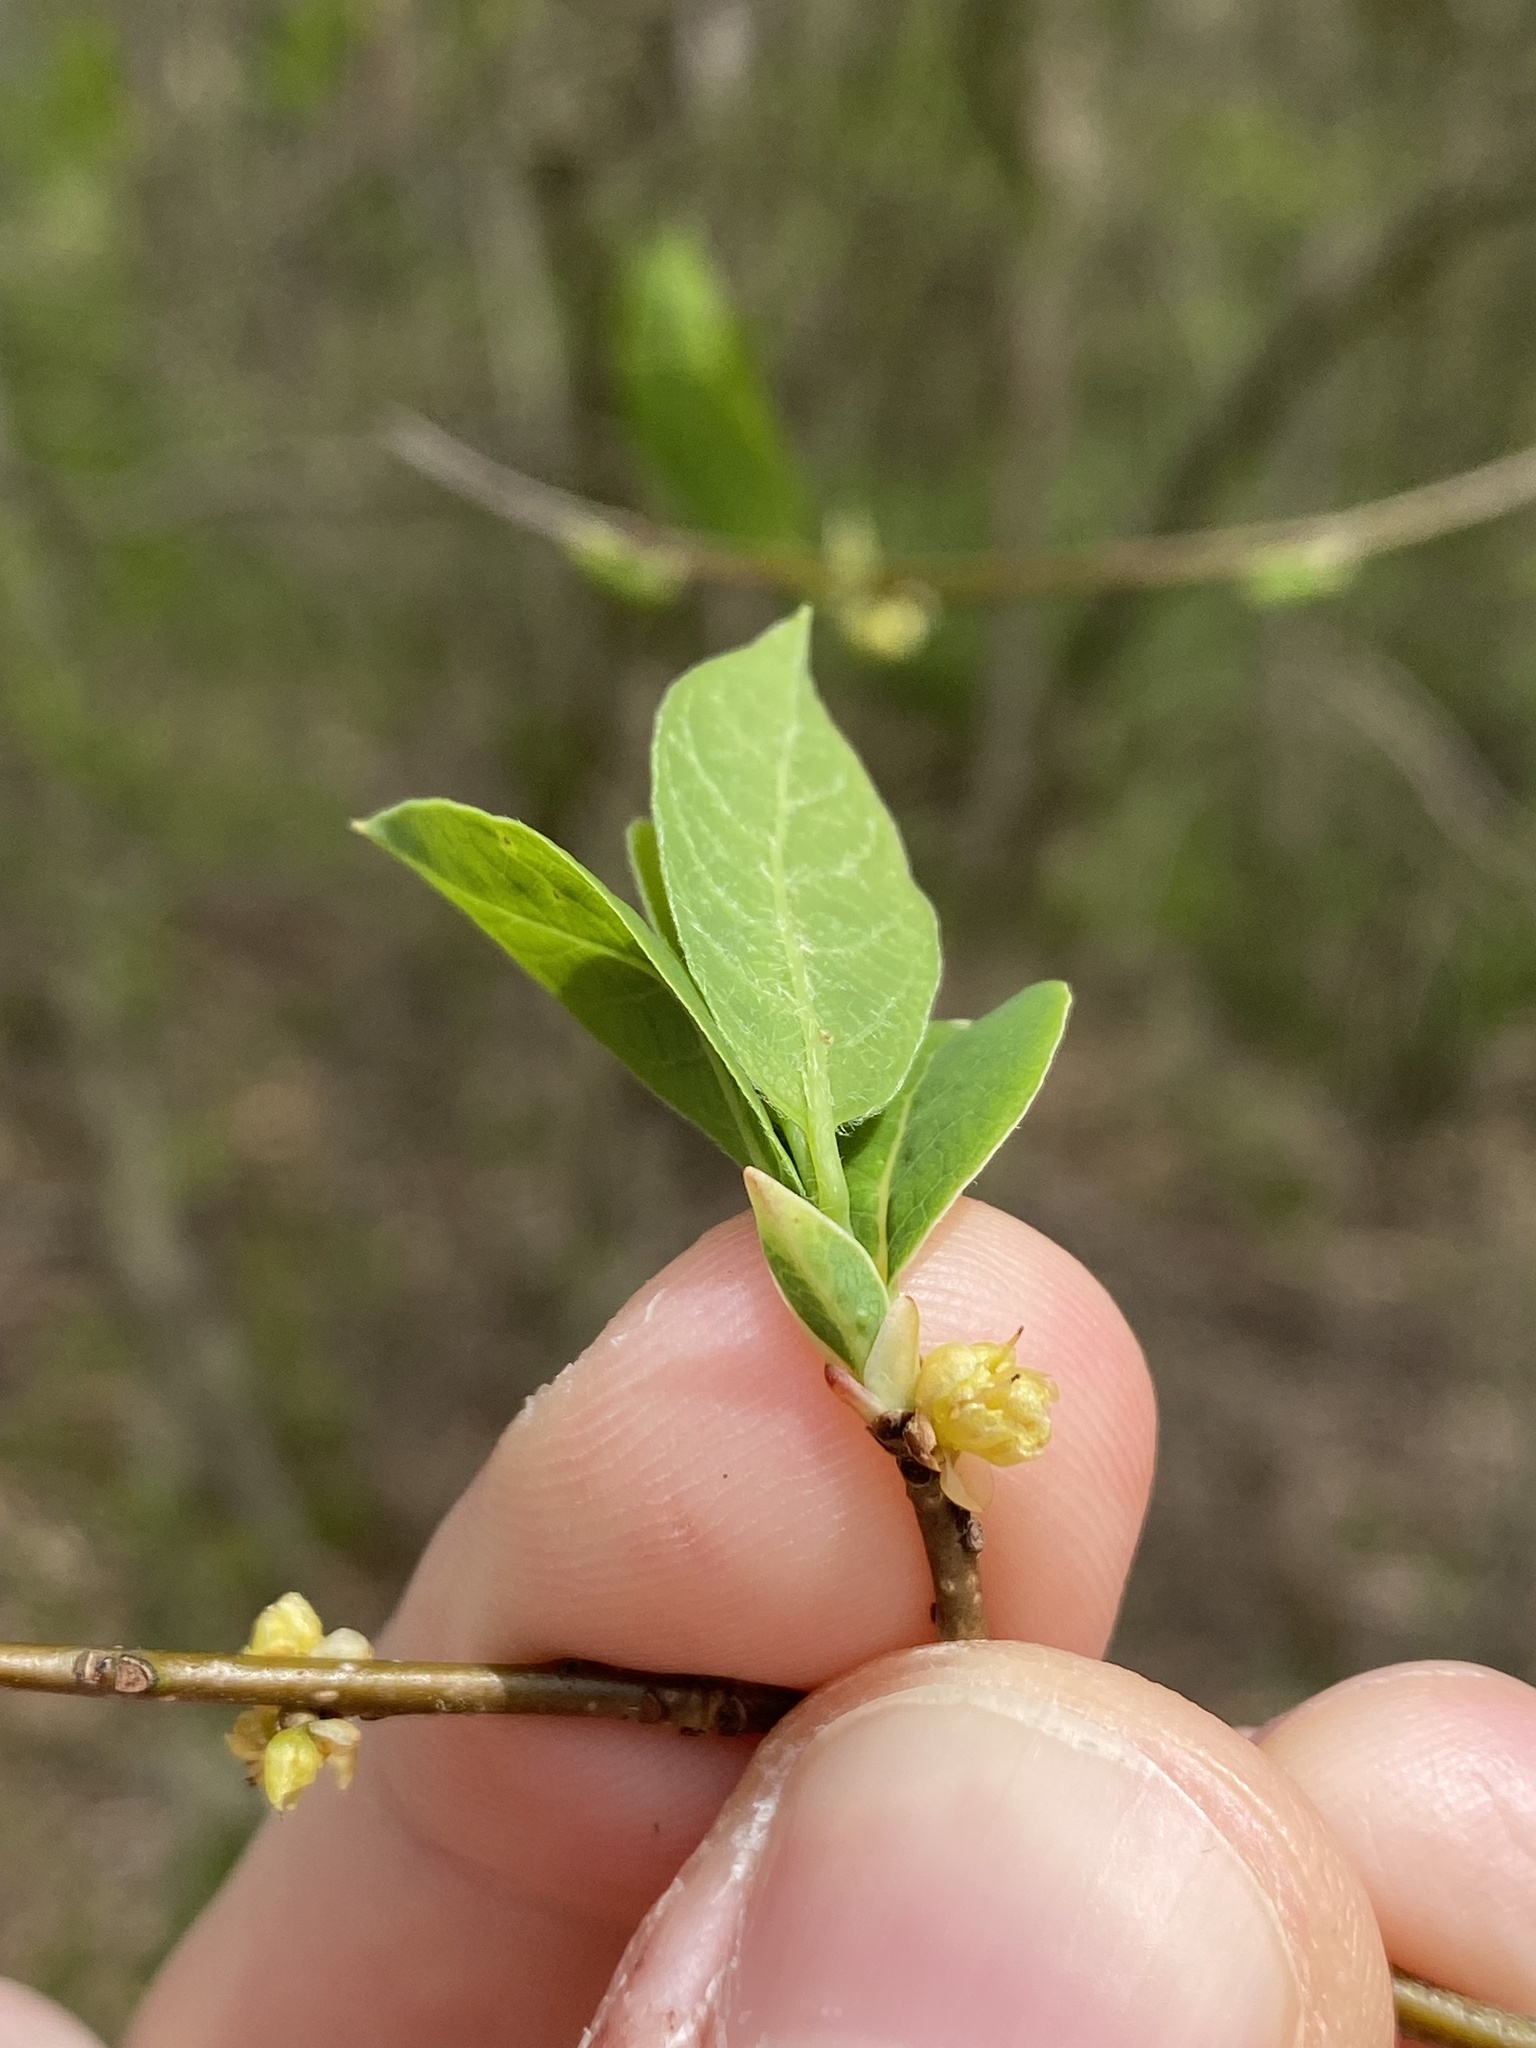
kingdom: Plantae
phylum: Tracheophyta
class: Magnoliopsida
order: Laurales
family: Lauraceae
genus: Lindera
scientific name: Lindera benzoin
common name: Spicebush
